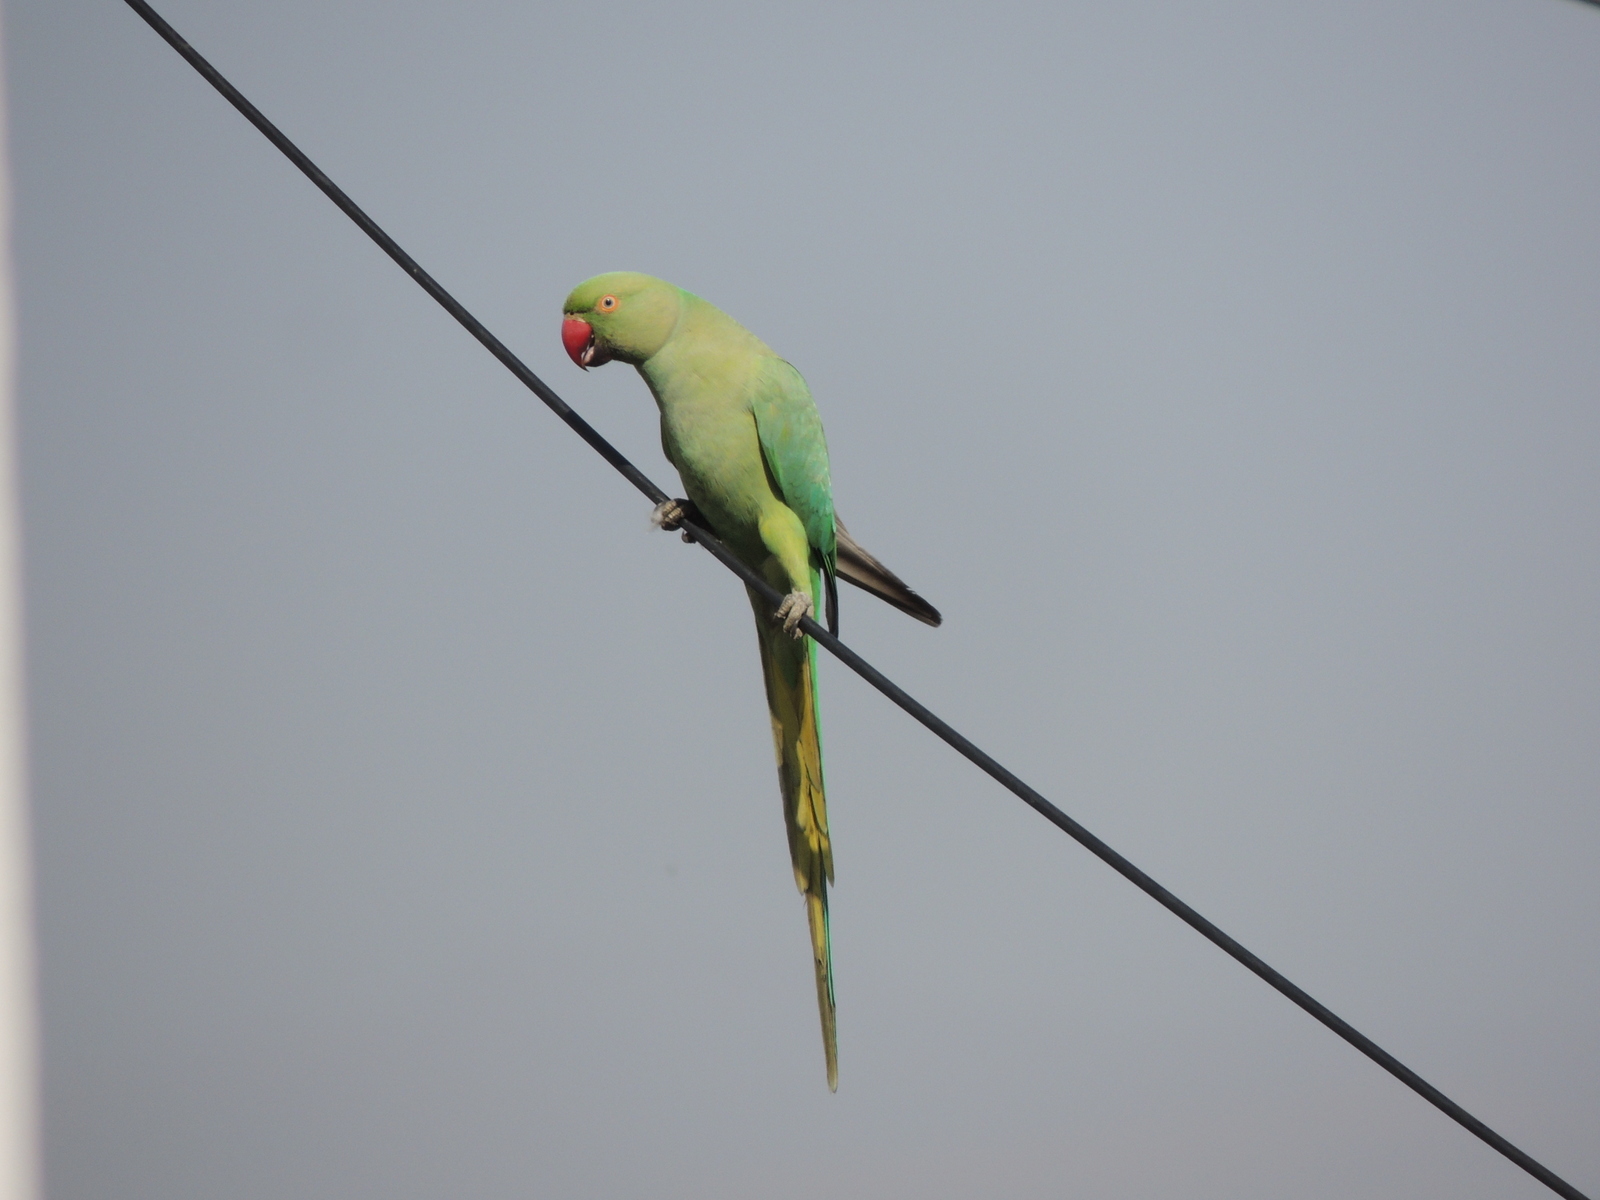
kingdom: Animalia
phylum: Chordata
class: Aves
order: Psittaciformes
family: Psittacidae
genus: Psittacula
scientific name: Psittacula krameri
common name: Rose-ringed parakeet
